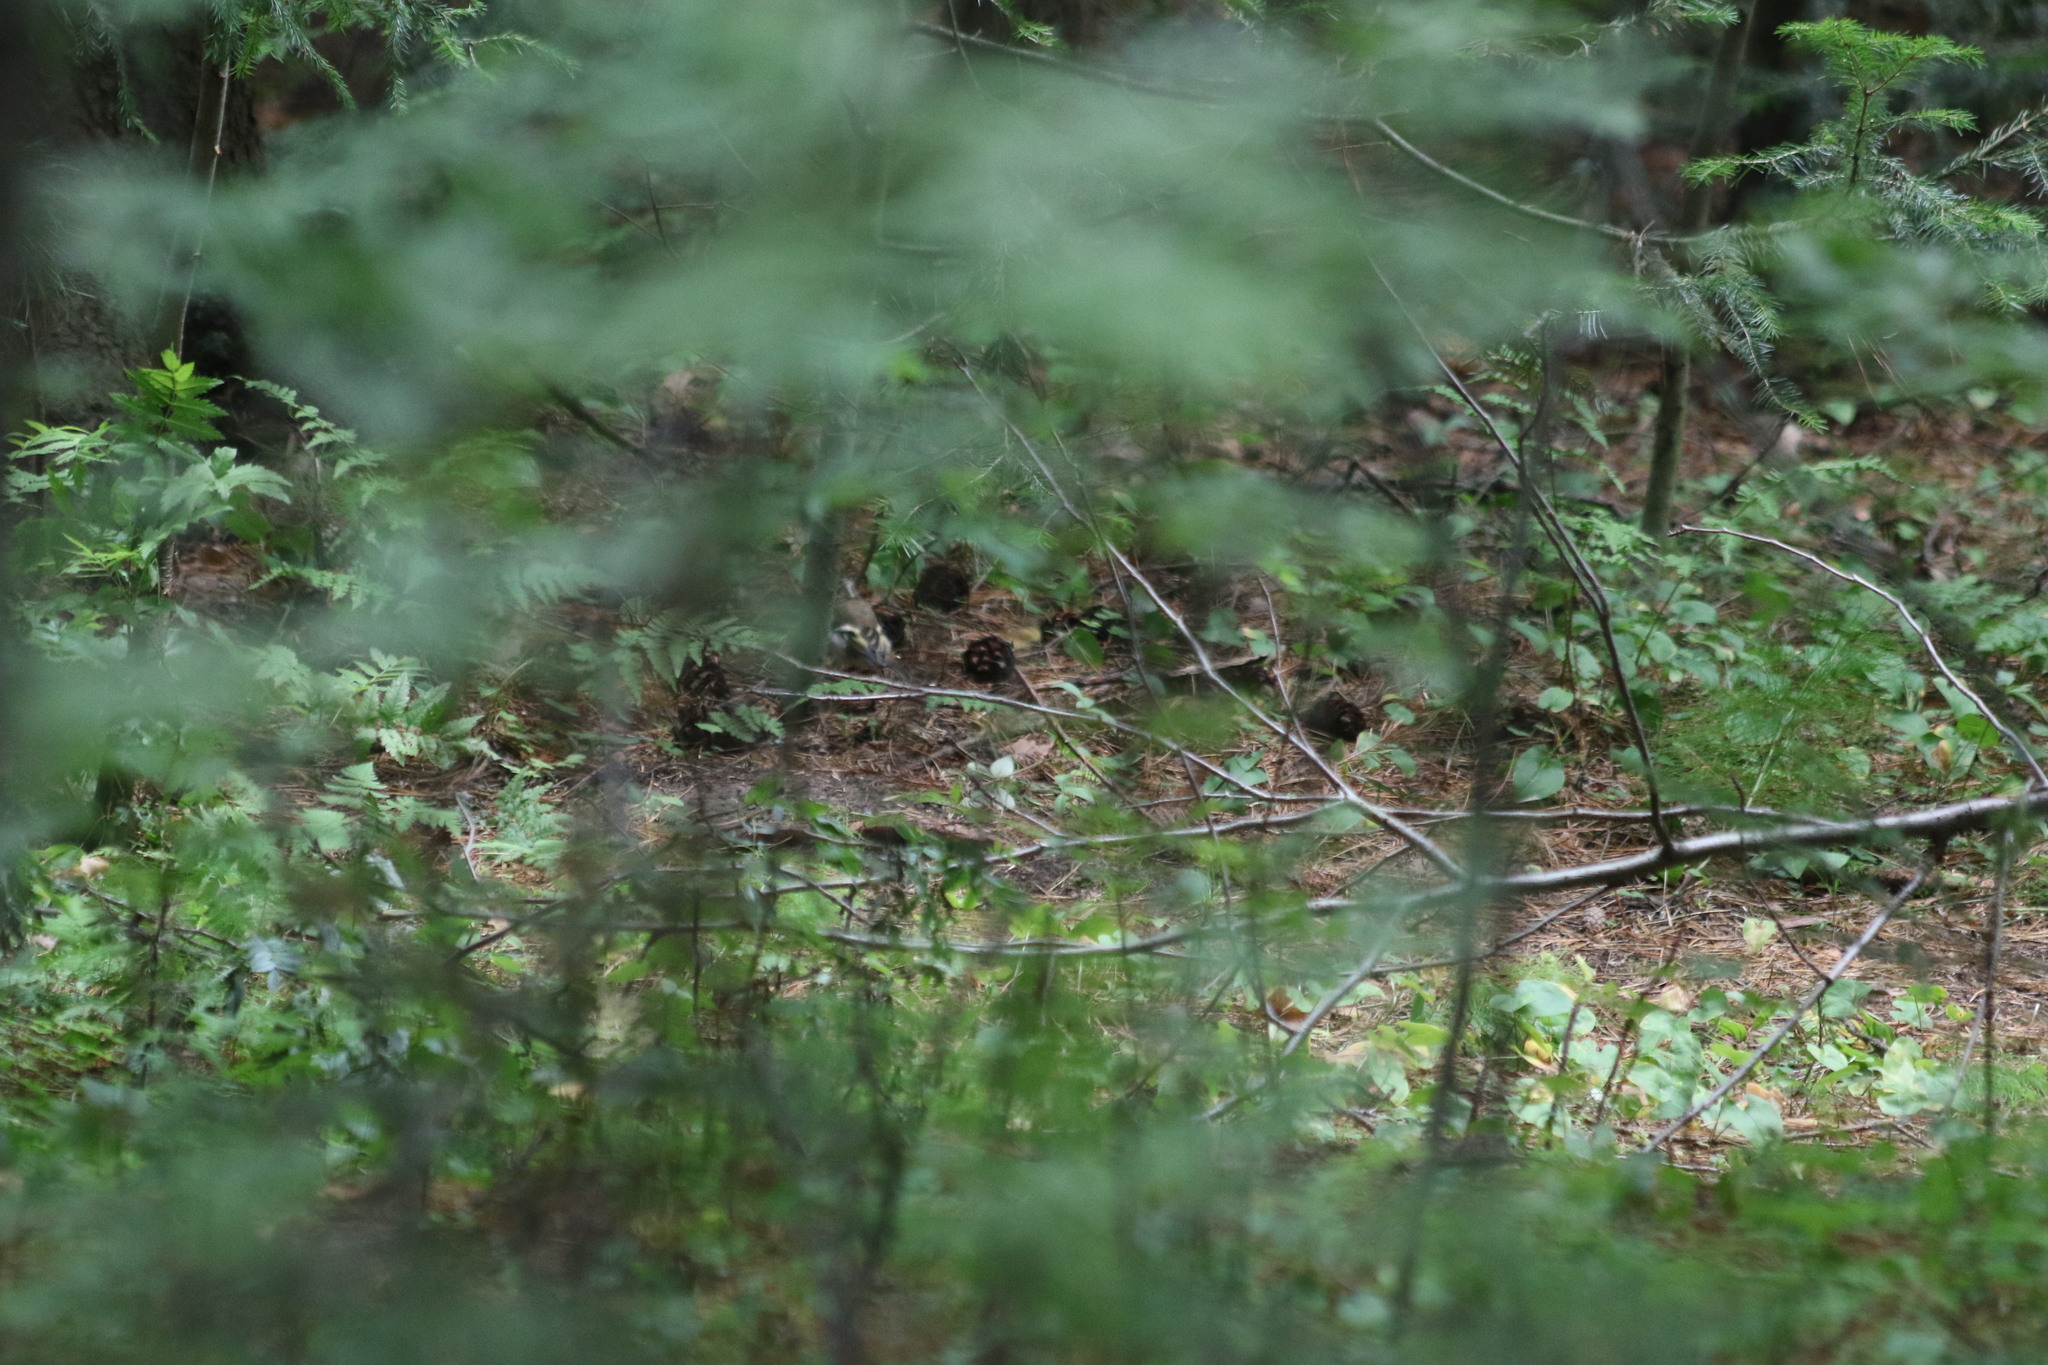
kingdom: Animalia
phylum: Chordata
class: Aves
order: Passeriformes
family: Fringillidae
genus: Fringilla
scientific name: Fringilla coelebs
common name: Common chaffinch
